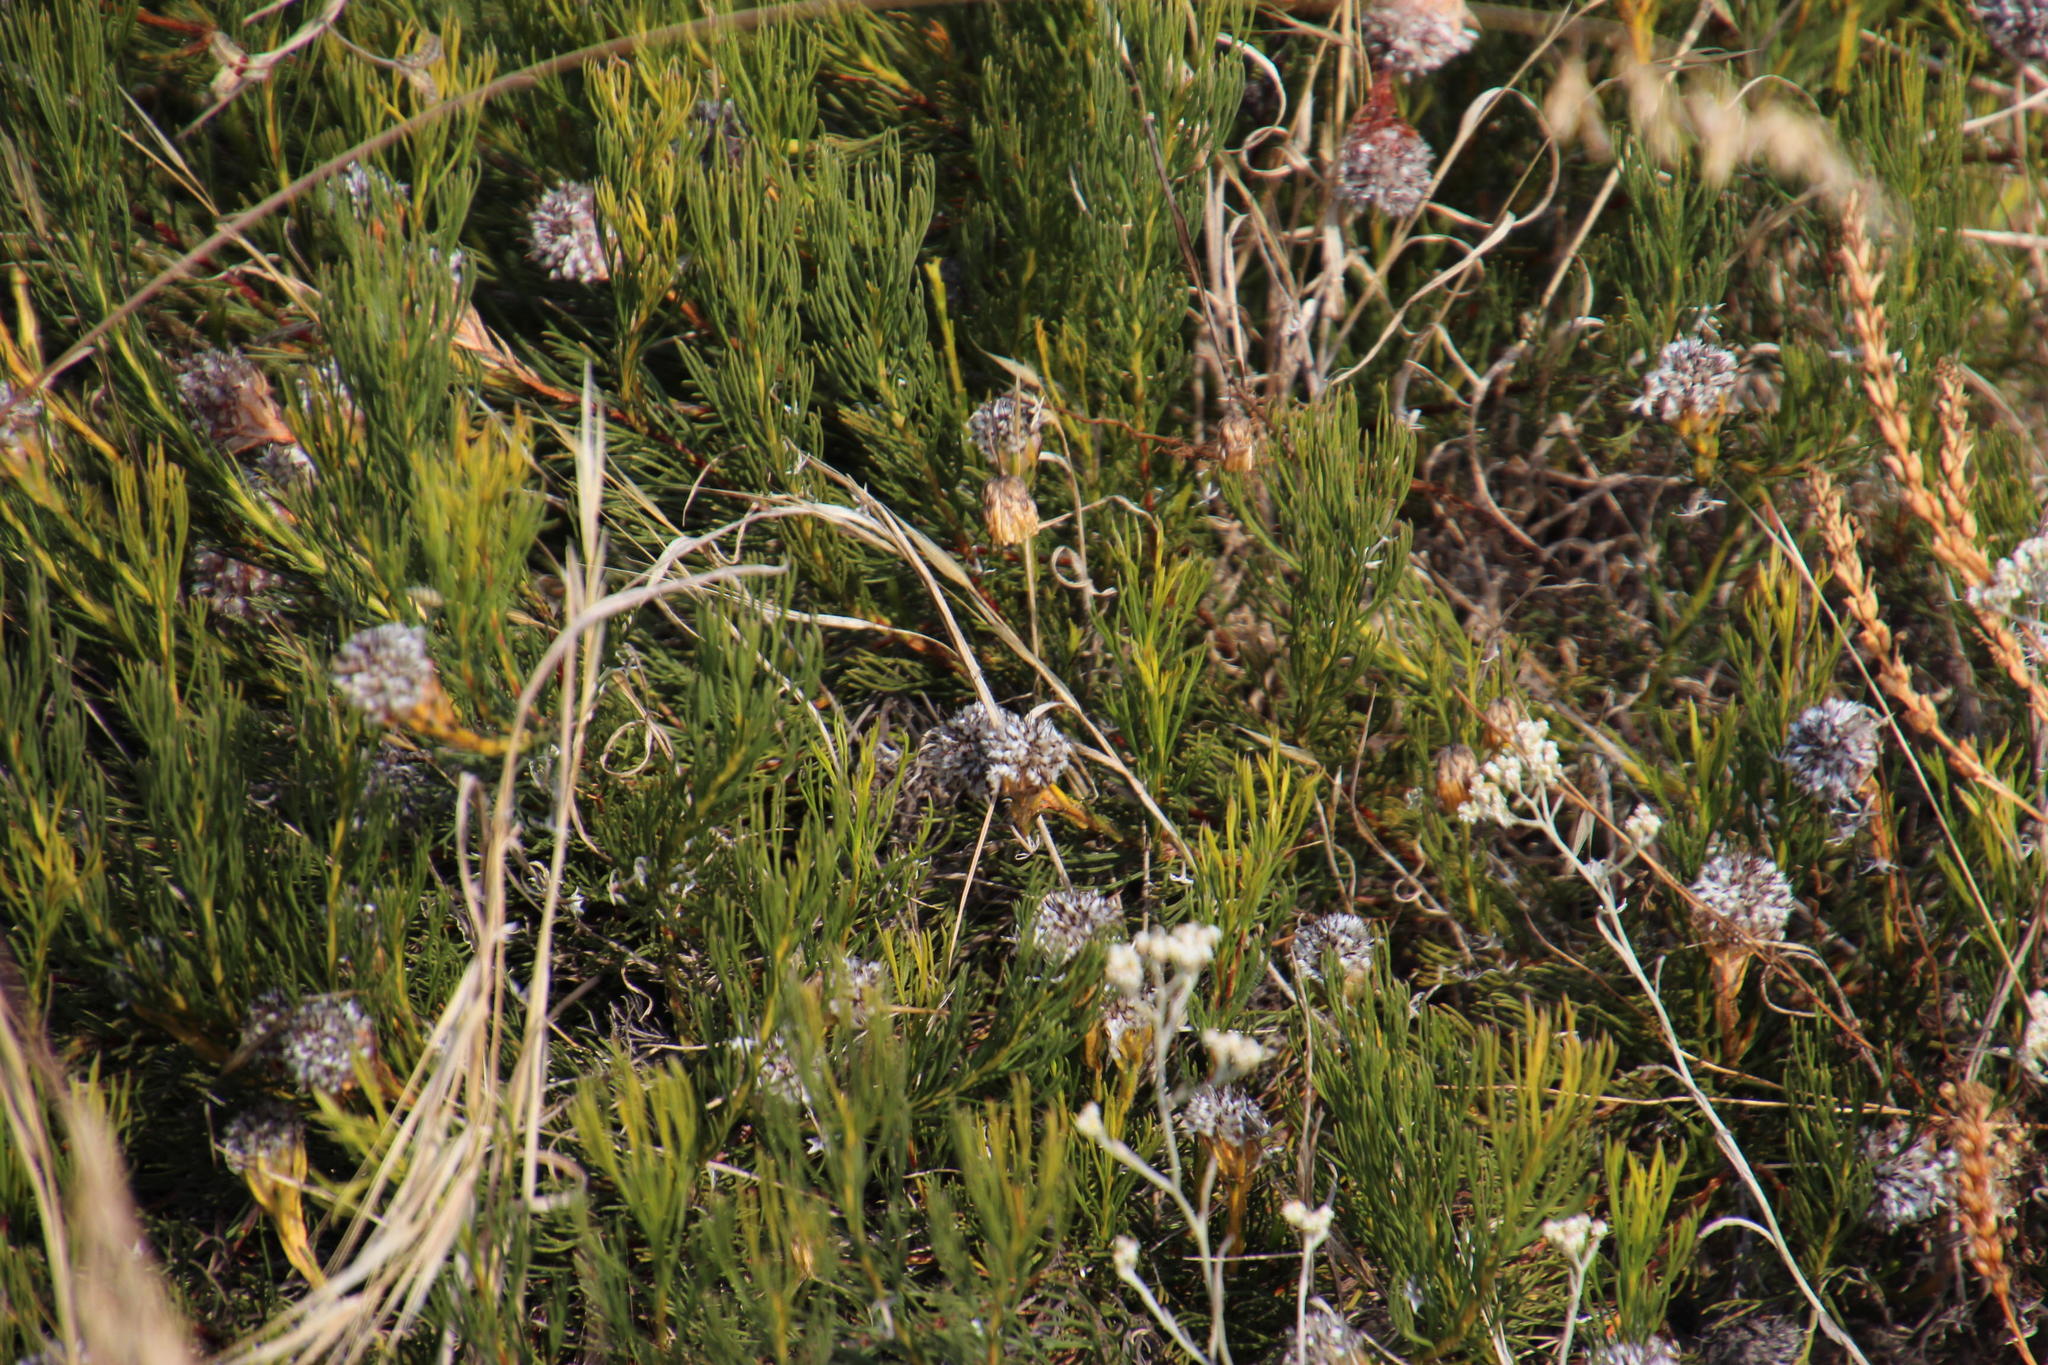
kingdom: Plantae
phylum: Tracheophyta
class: Magnoliopsida
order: Proteales
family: Proteaceae
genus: Serruria
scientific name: Serruria furcellata
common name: Kraaifontein spiderhead
